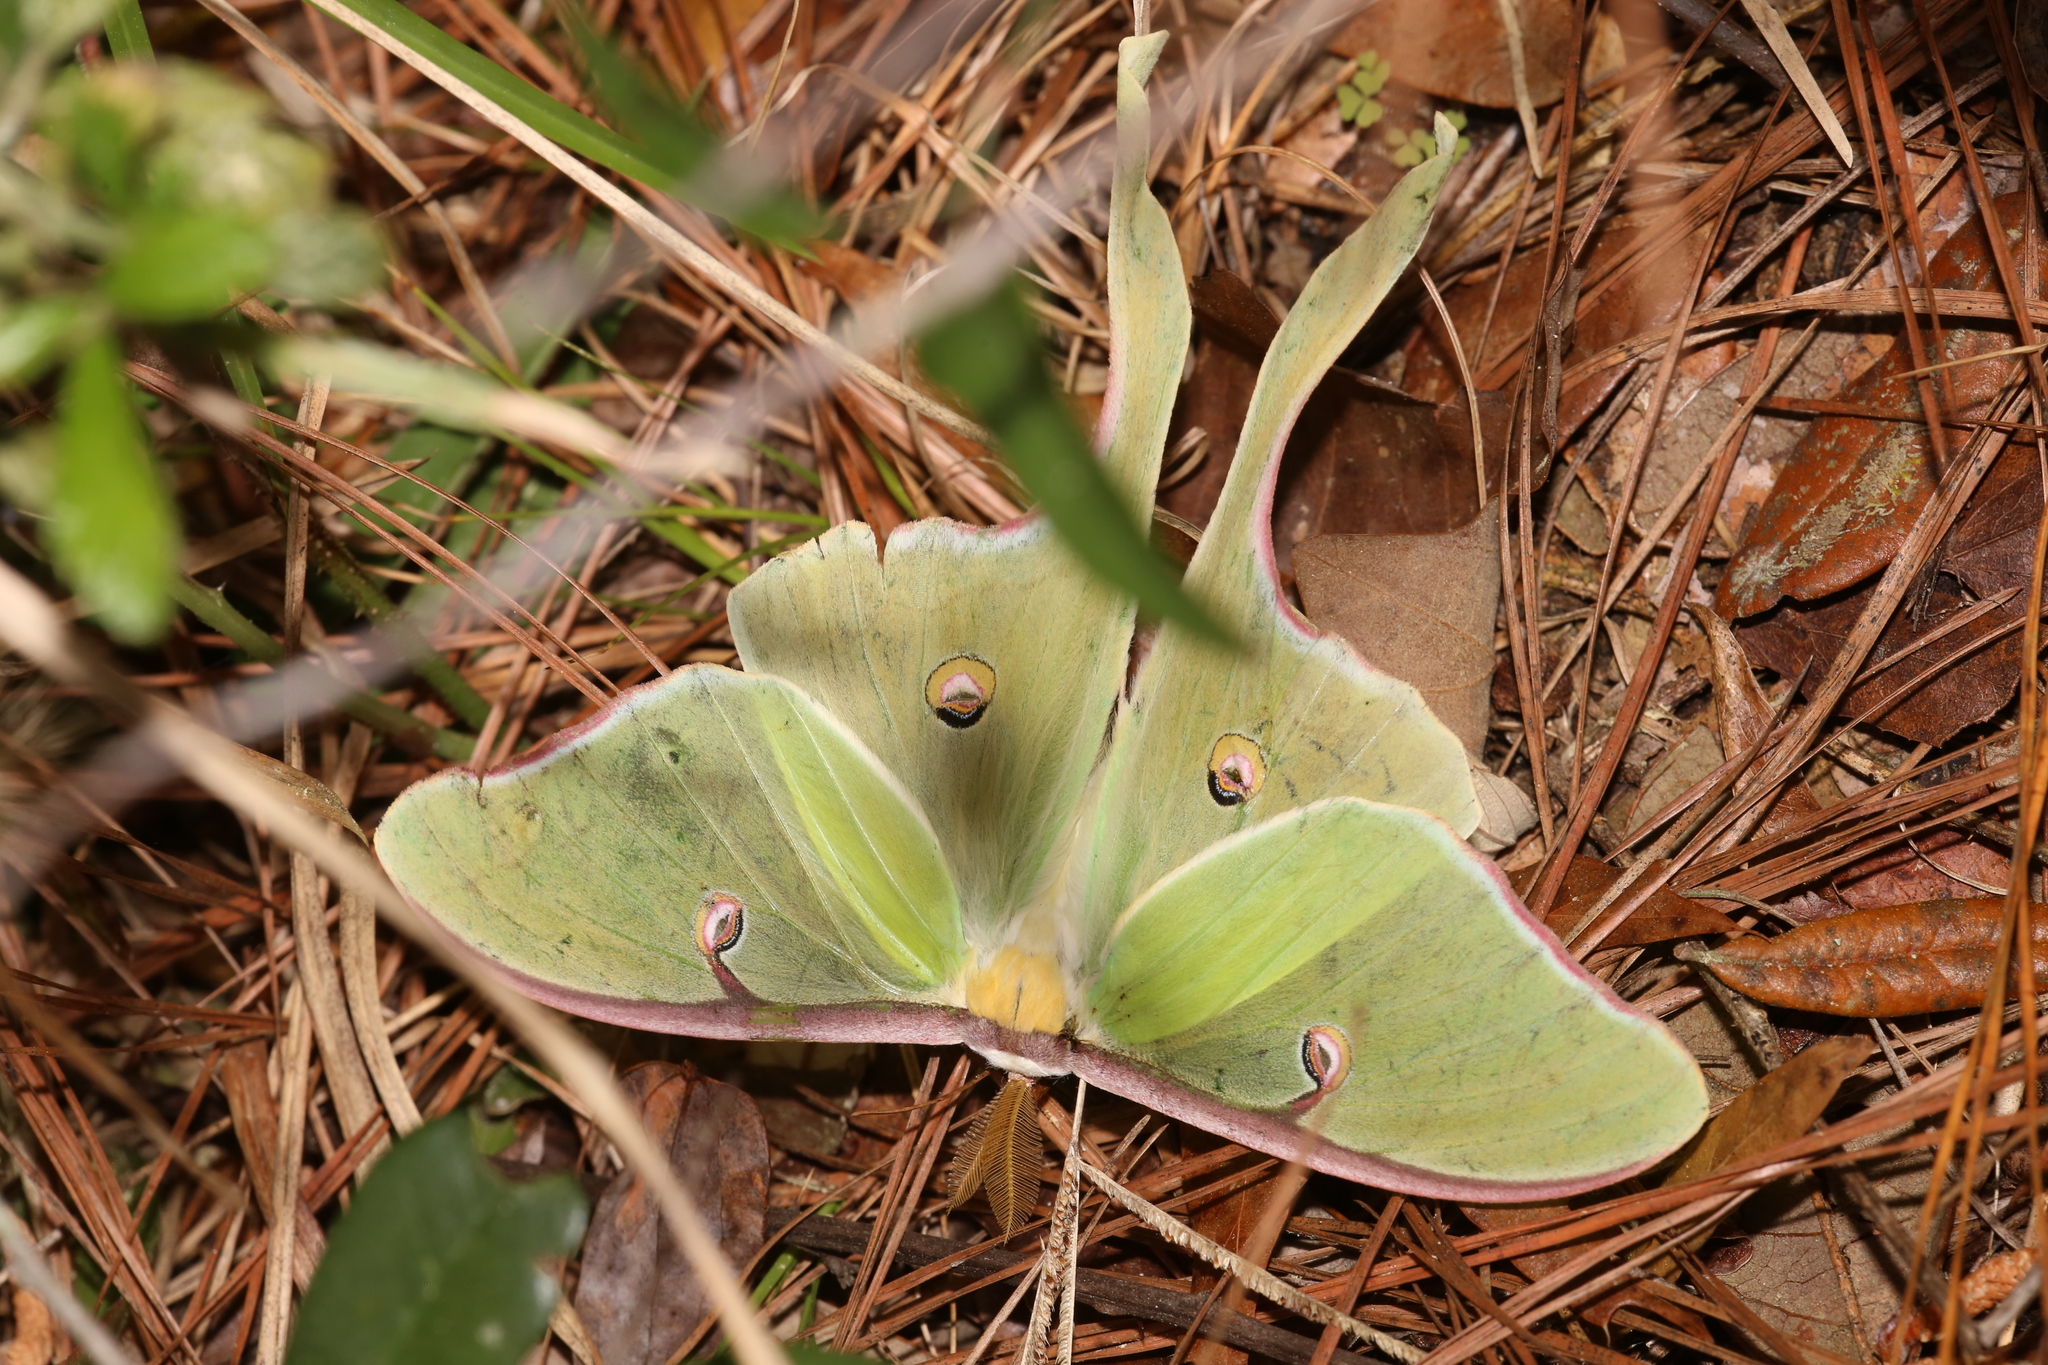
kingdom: Animalia
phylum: Arthropoda
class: Insecta
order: Lepidoptera
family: Saturniidae
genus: Actias
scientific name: Actias luna
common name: Luna moth
